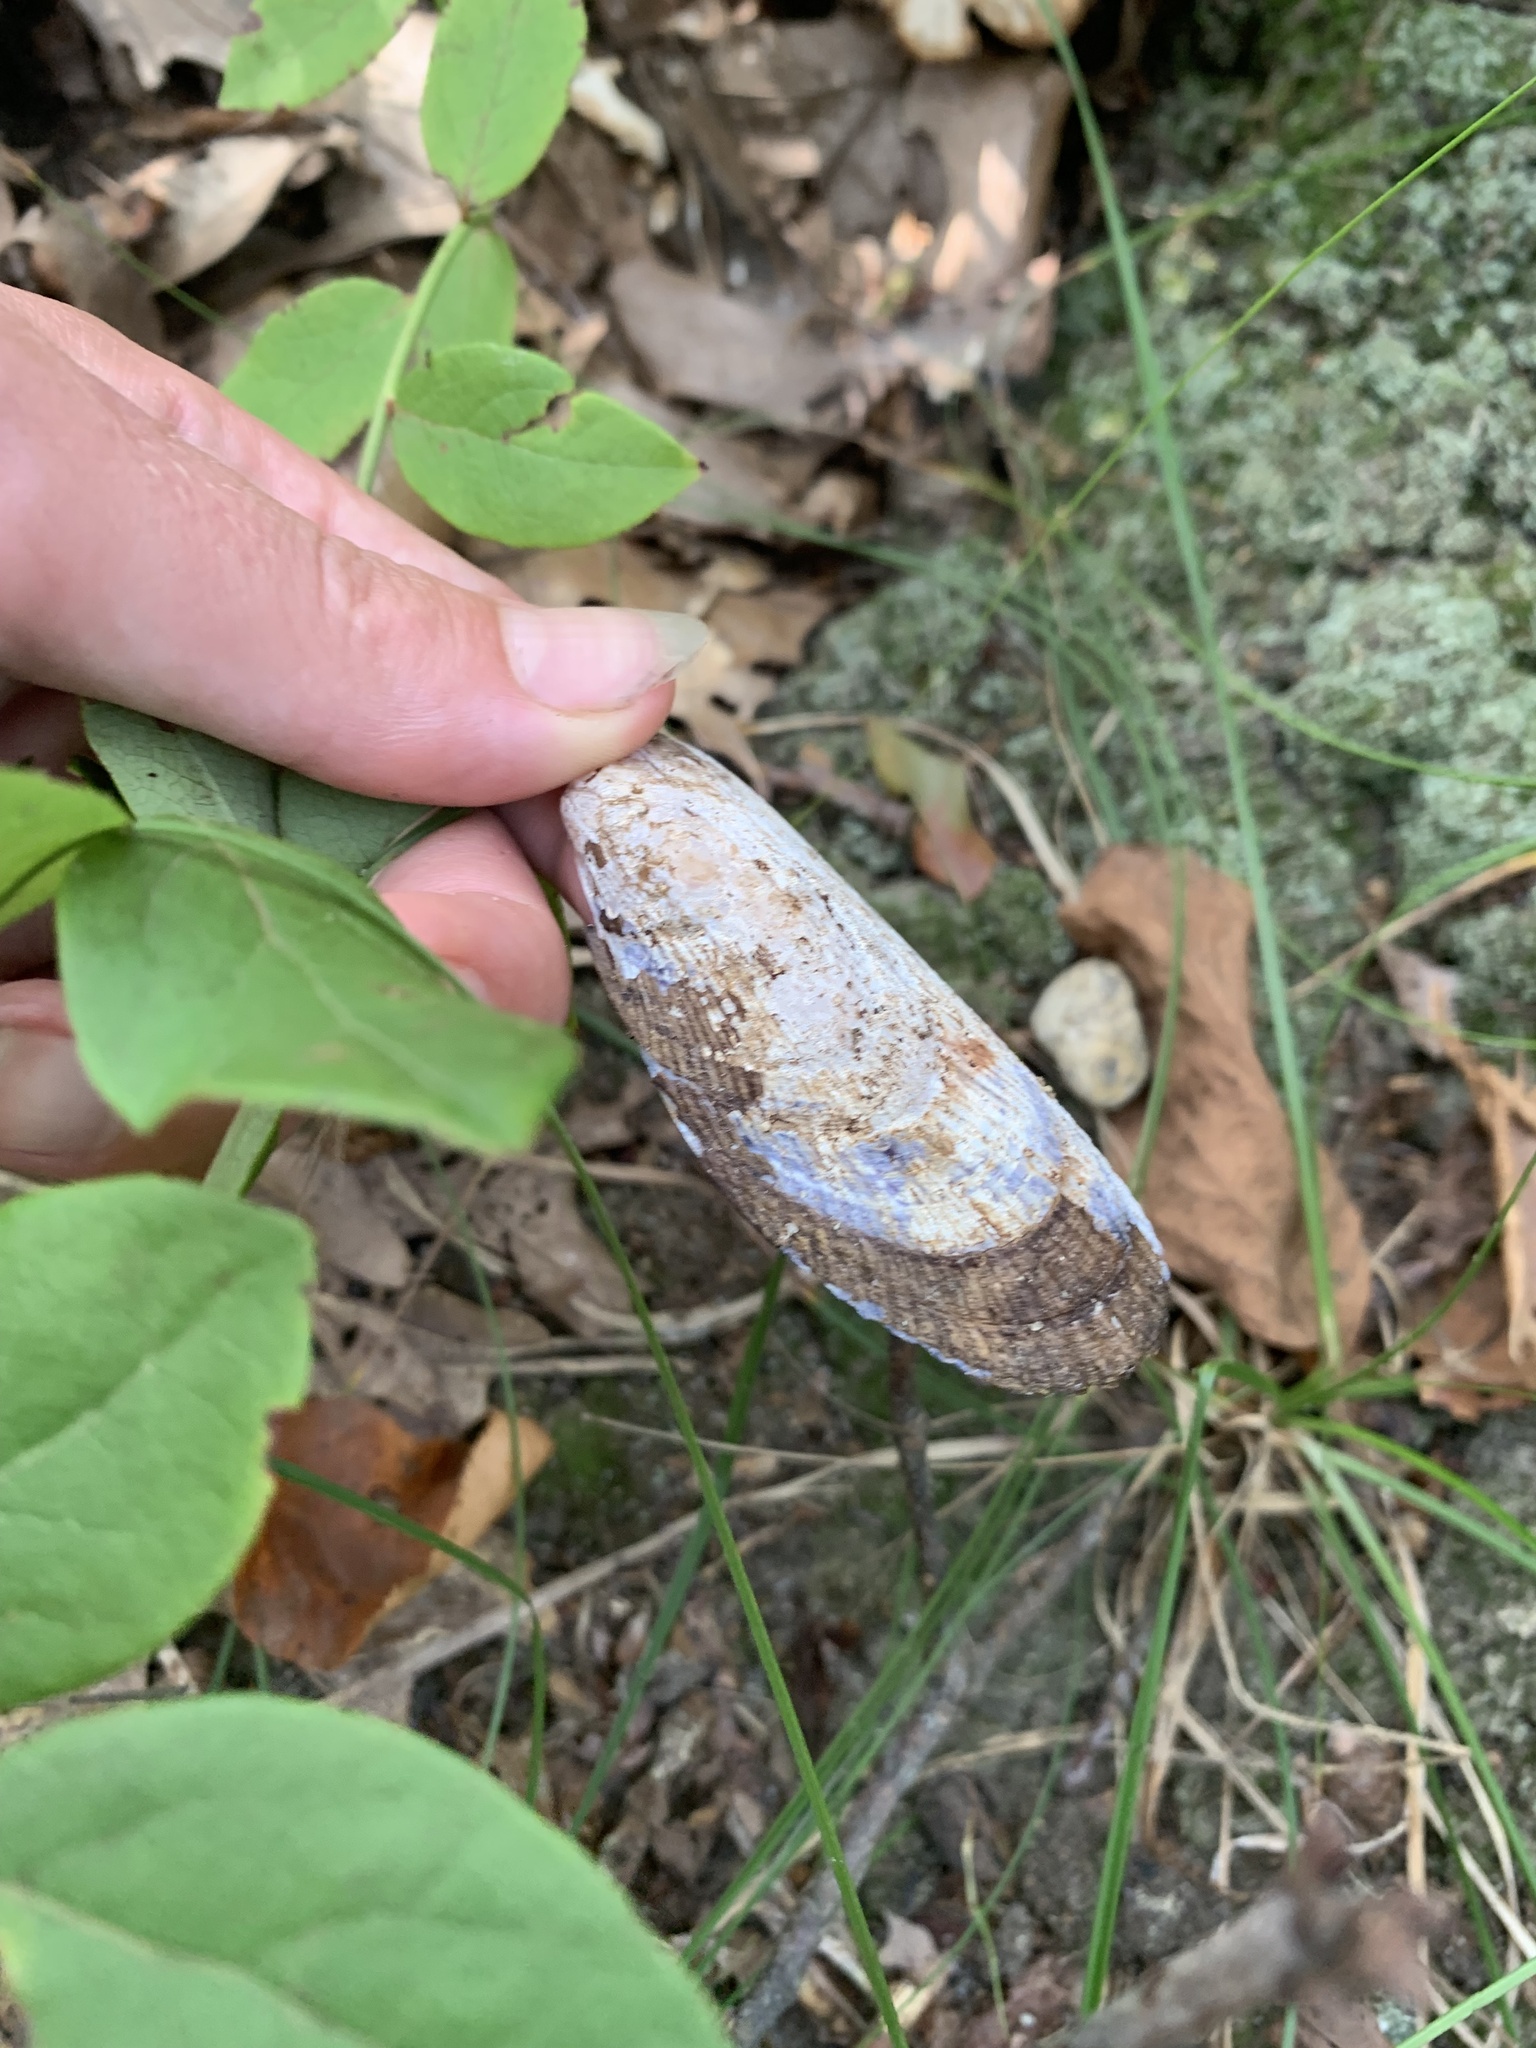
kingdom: Animalia
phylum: Mollusca
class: Bivalvia
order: Mytilida
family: Mytilidae
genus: Geukensia
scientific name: Geukensia demissa
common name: Ribbed mussel
